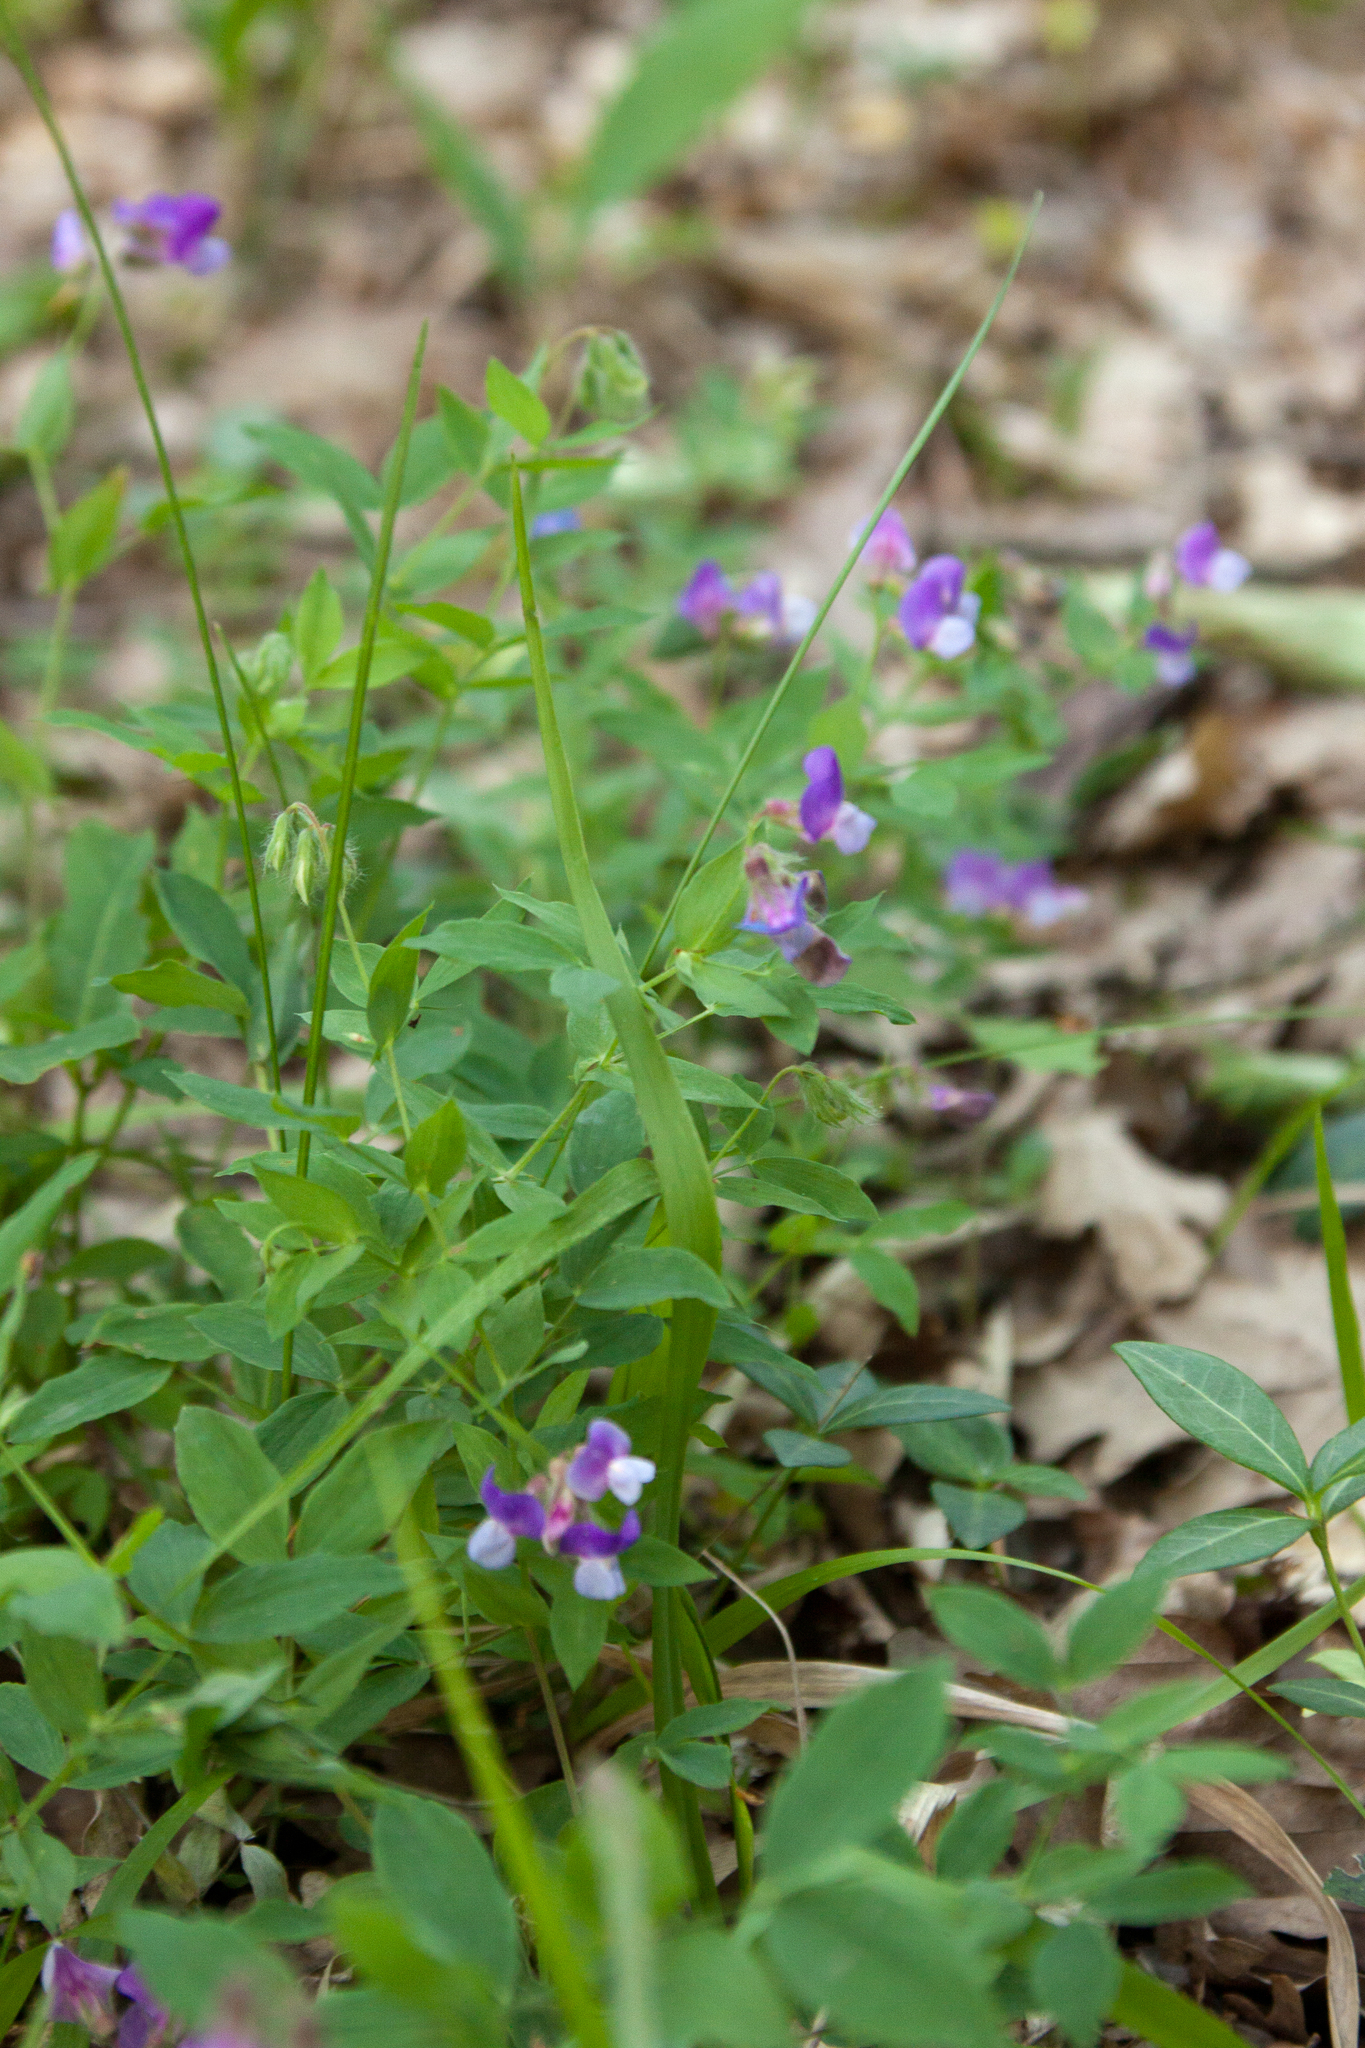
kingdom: Plantae
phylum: Tracheophyta
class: Magnoliopsida
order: Fabales
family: Fabaceae
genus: Lathyrus
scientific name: Lathyrus laxiflorus
